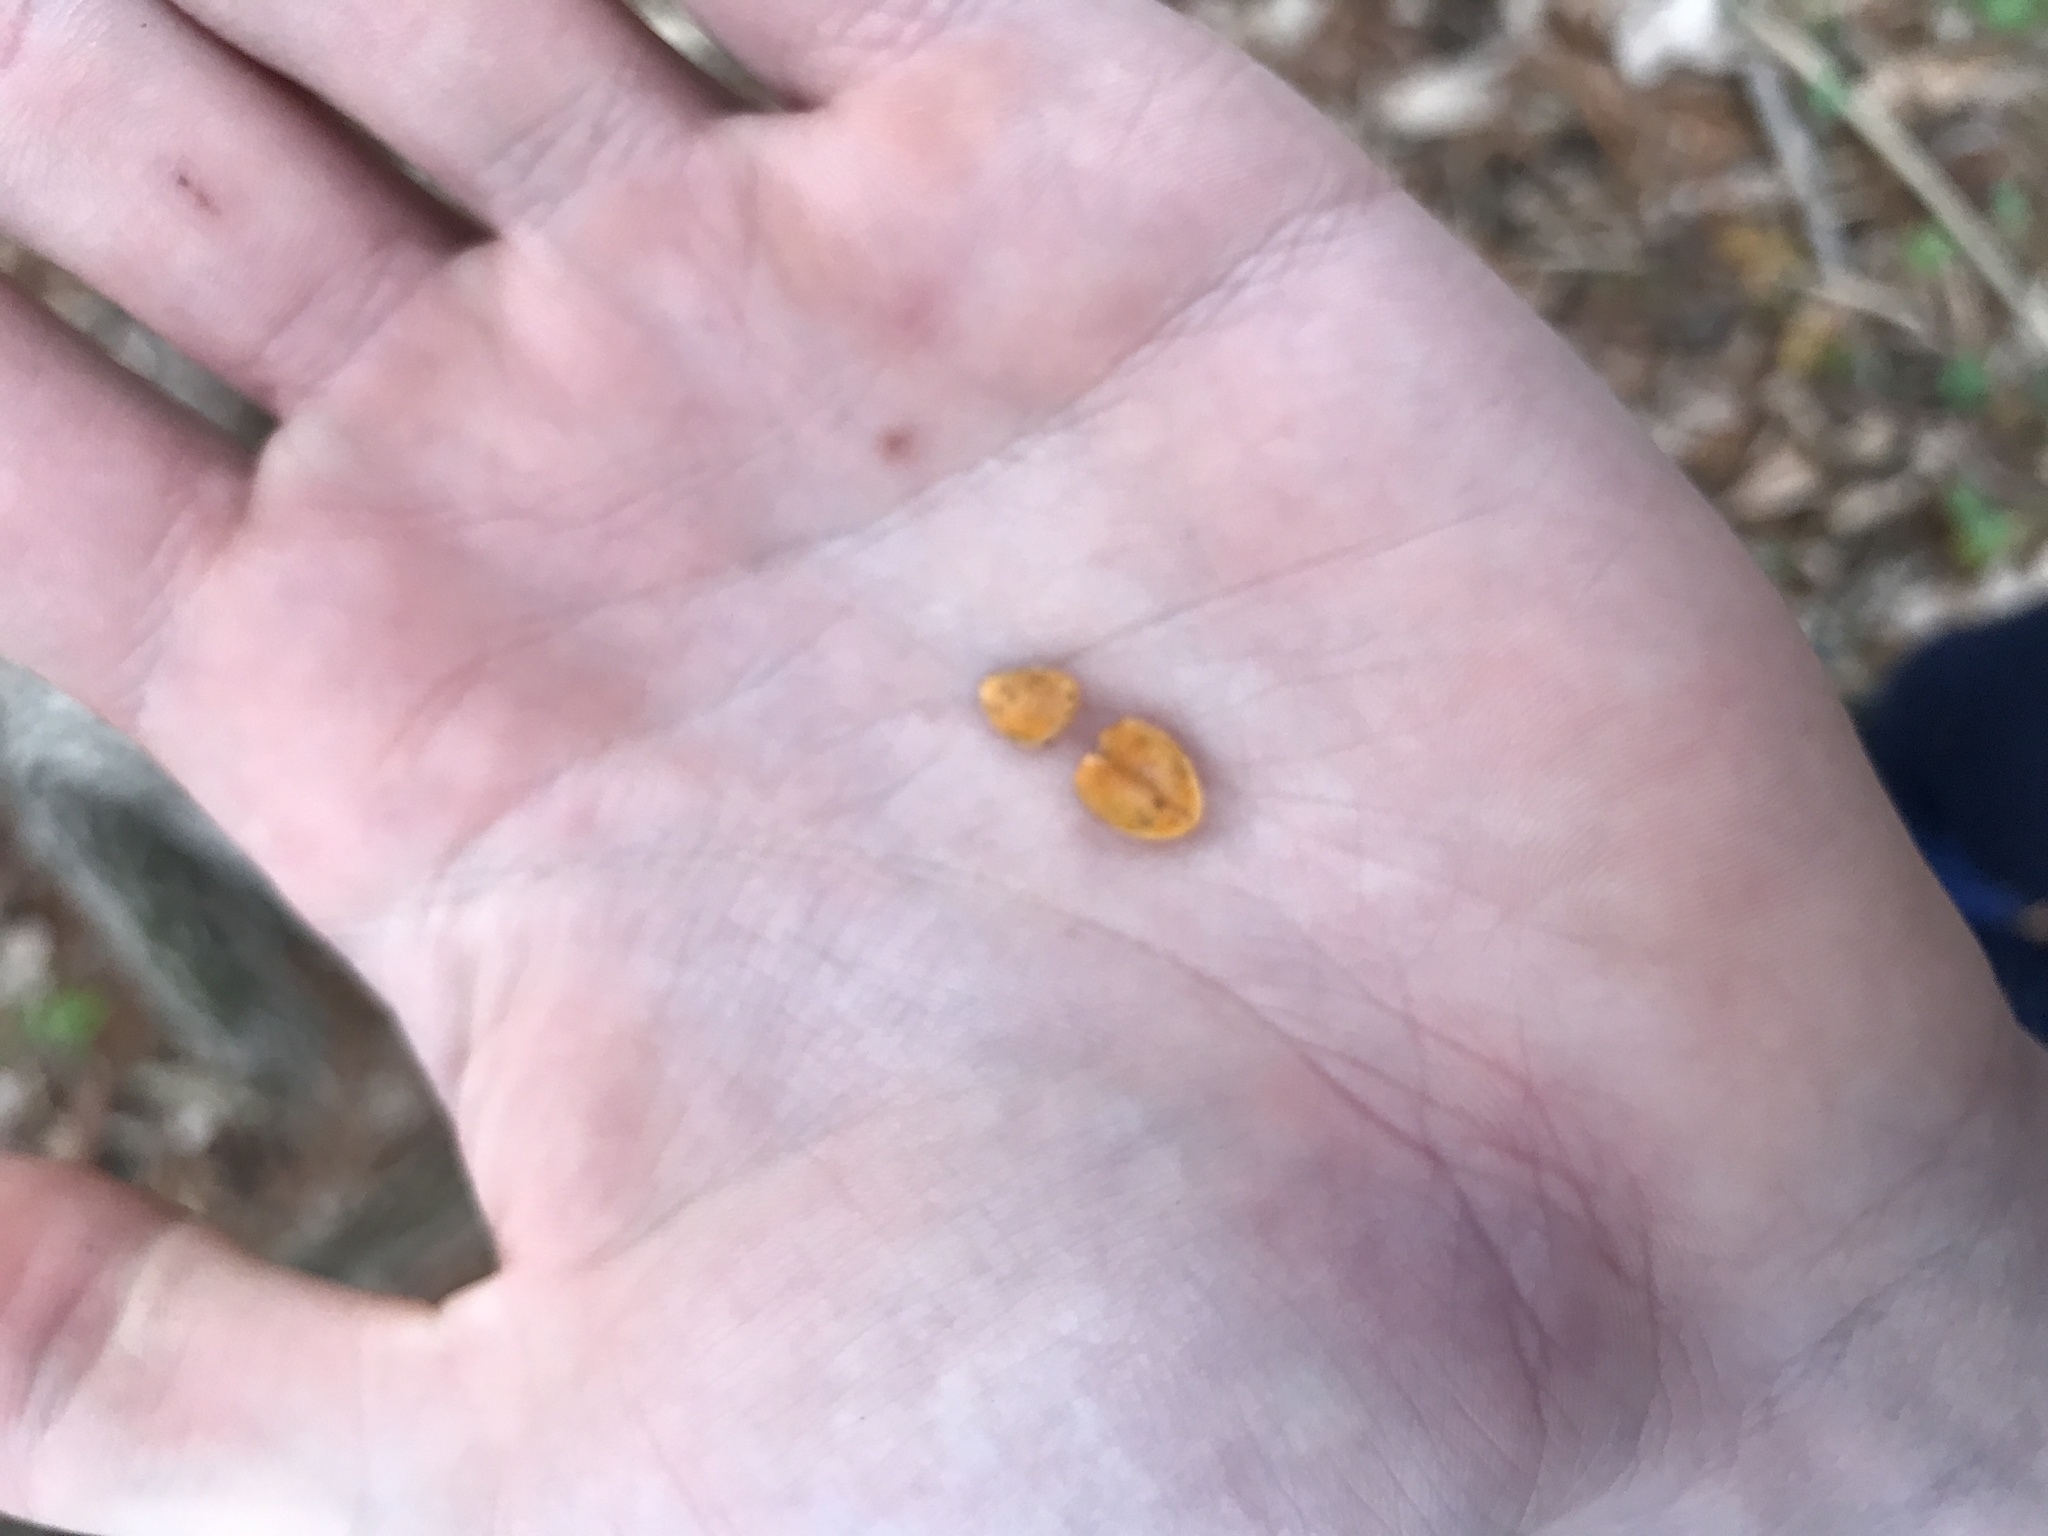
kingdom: Plantae
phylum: Tracheophyta
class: Magnoliopsida
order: Celastrales
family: Celastraceae
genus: Celastrus
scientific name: Celastrus orbiculatus
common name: Oriental bittersweet
